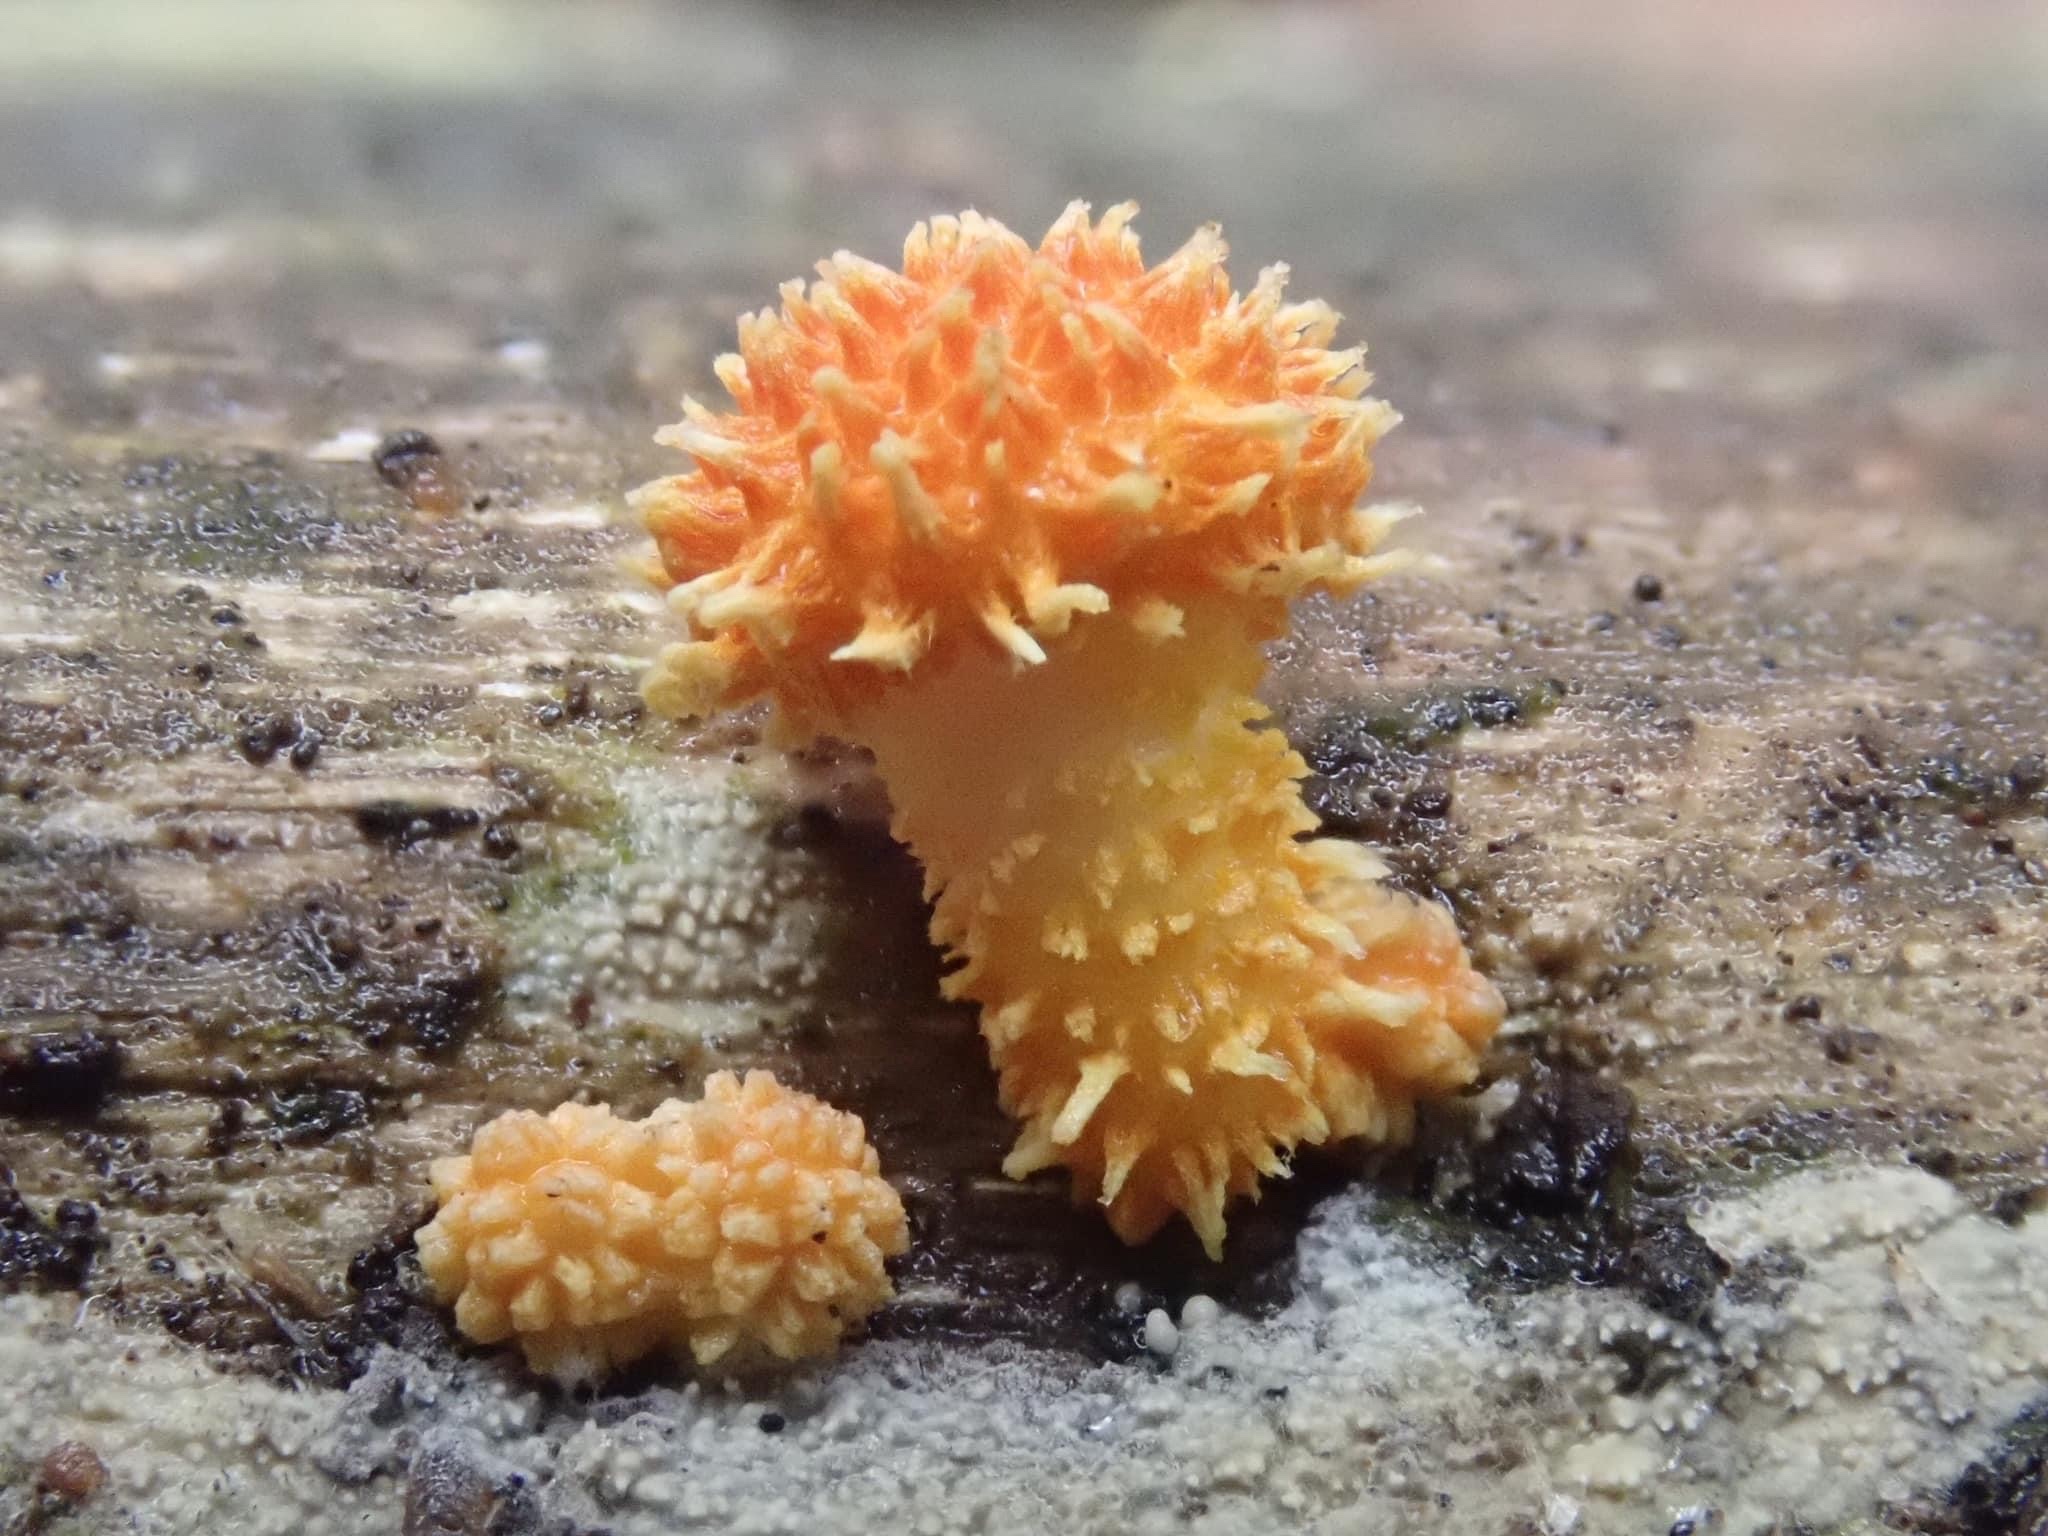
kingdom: Fungi
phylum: Basidiomycota
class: Agaricomycetes
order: Agaricales
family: Physalacriaceae
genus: Cyptotrama
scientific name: Cyptotrama asprata
